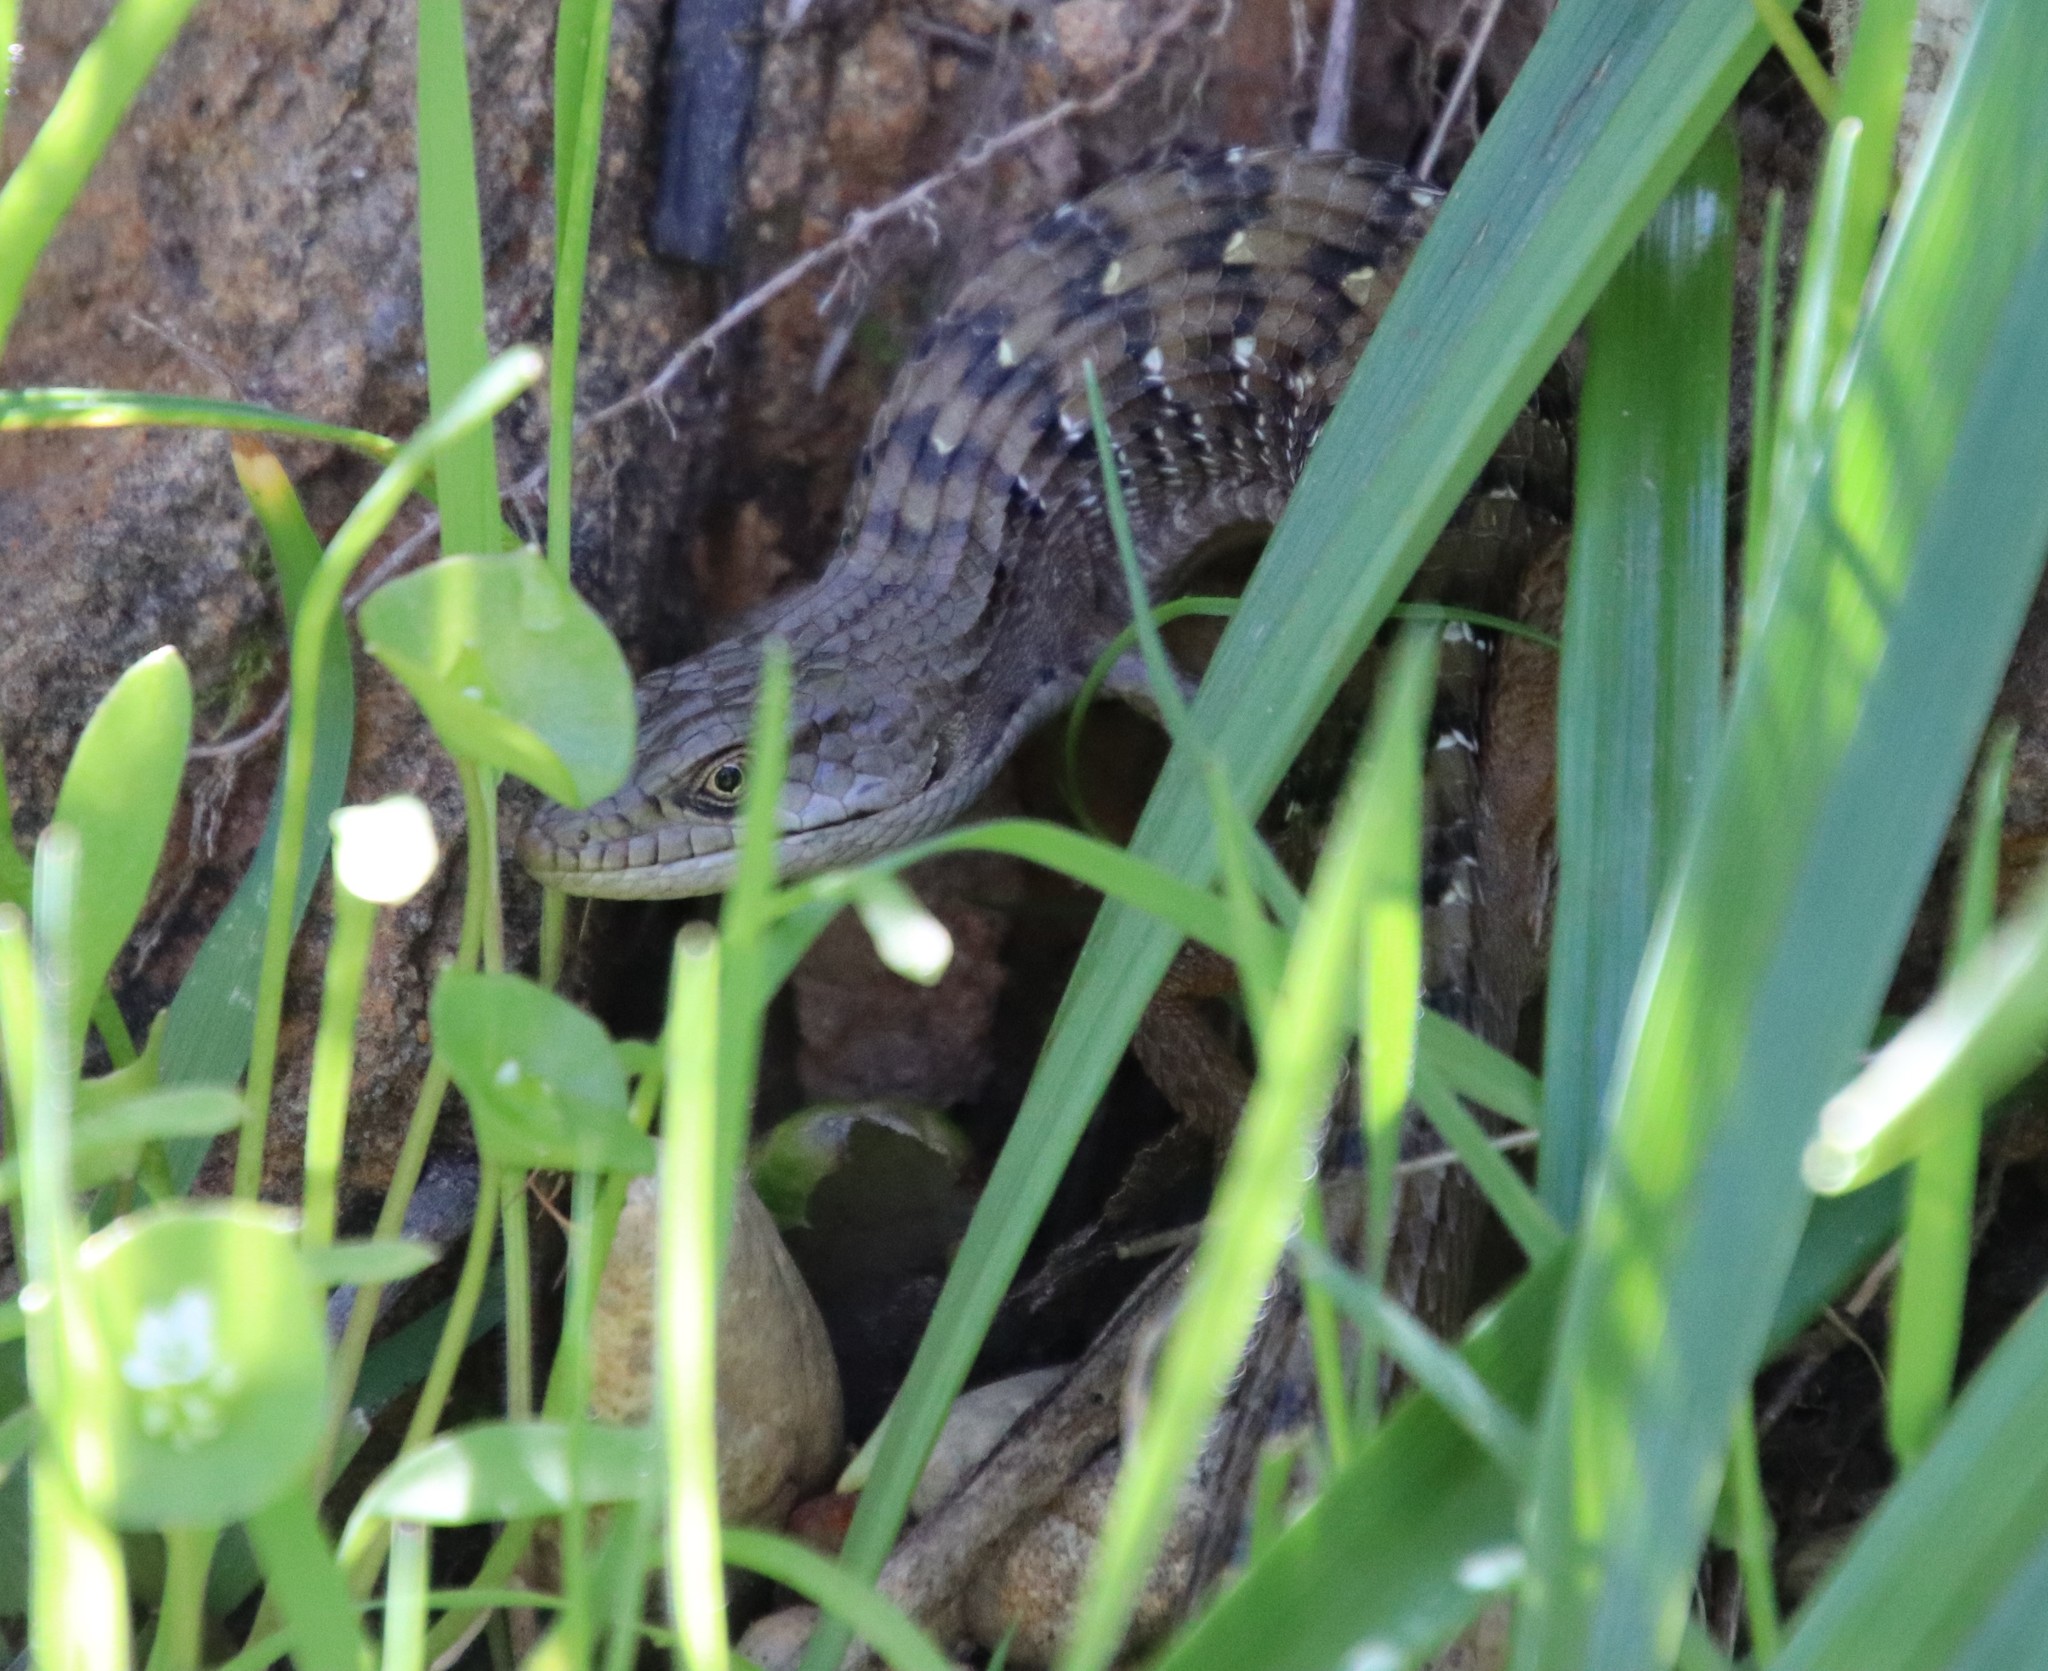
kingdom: Animalia
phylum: Chordata
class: Squamata
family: Anguidae
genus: Elgaria
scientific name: Elgaria multicarinata
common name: Southern alligator lizard
